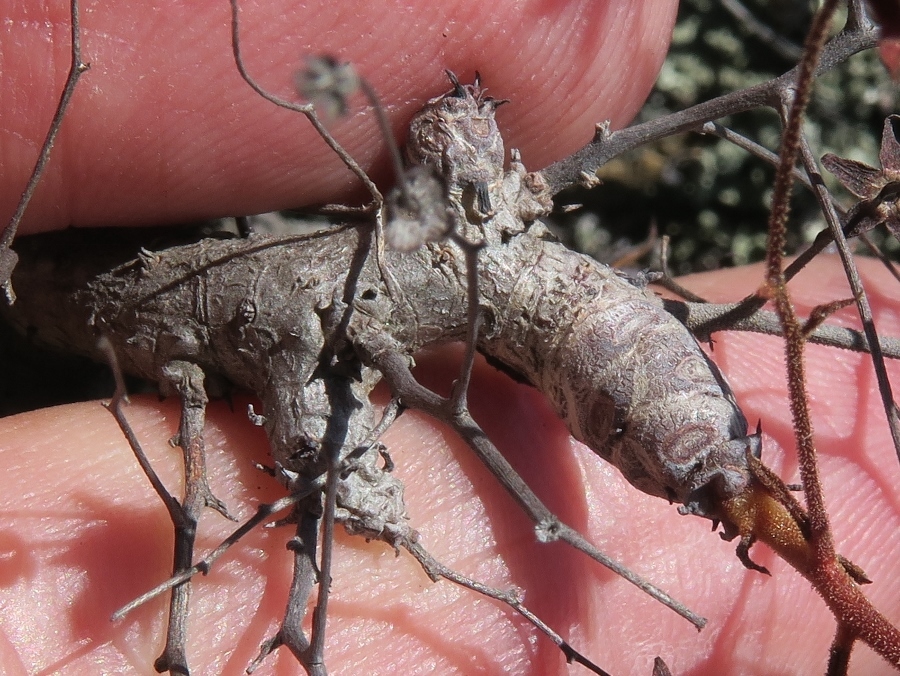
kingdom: Plantae
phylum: Tracheophyta
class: Magnoliopsida
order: Saxifragales
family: Crassulaceae
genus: Tylecodon
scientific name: Tylecodon reticulatus
